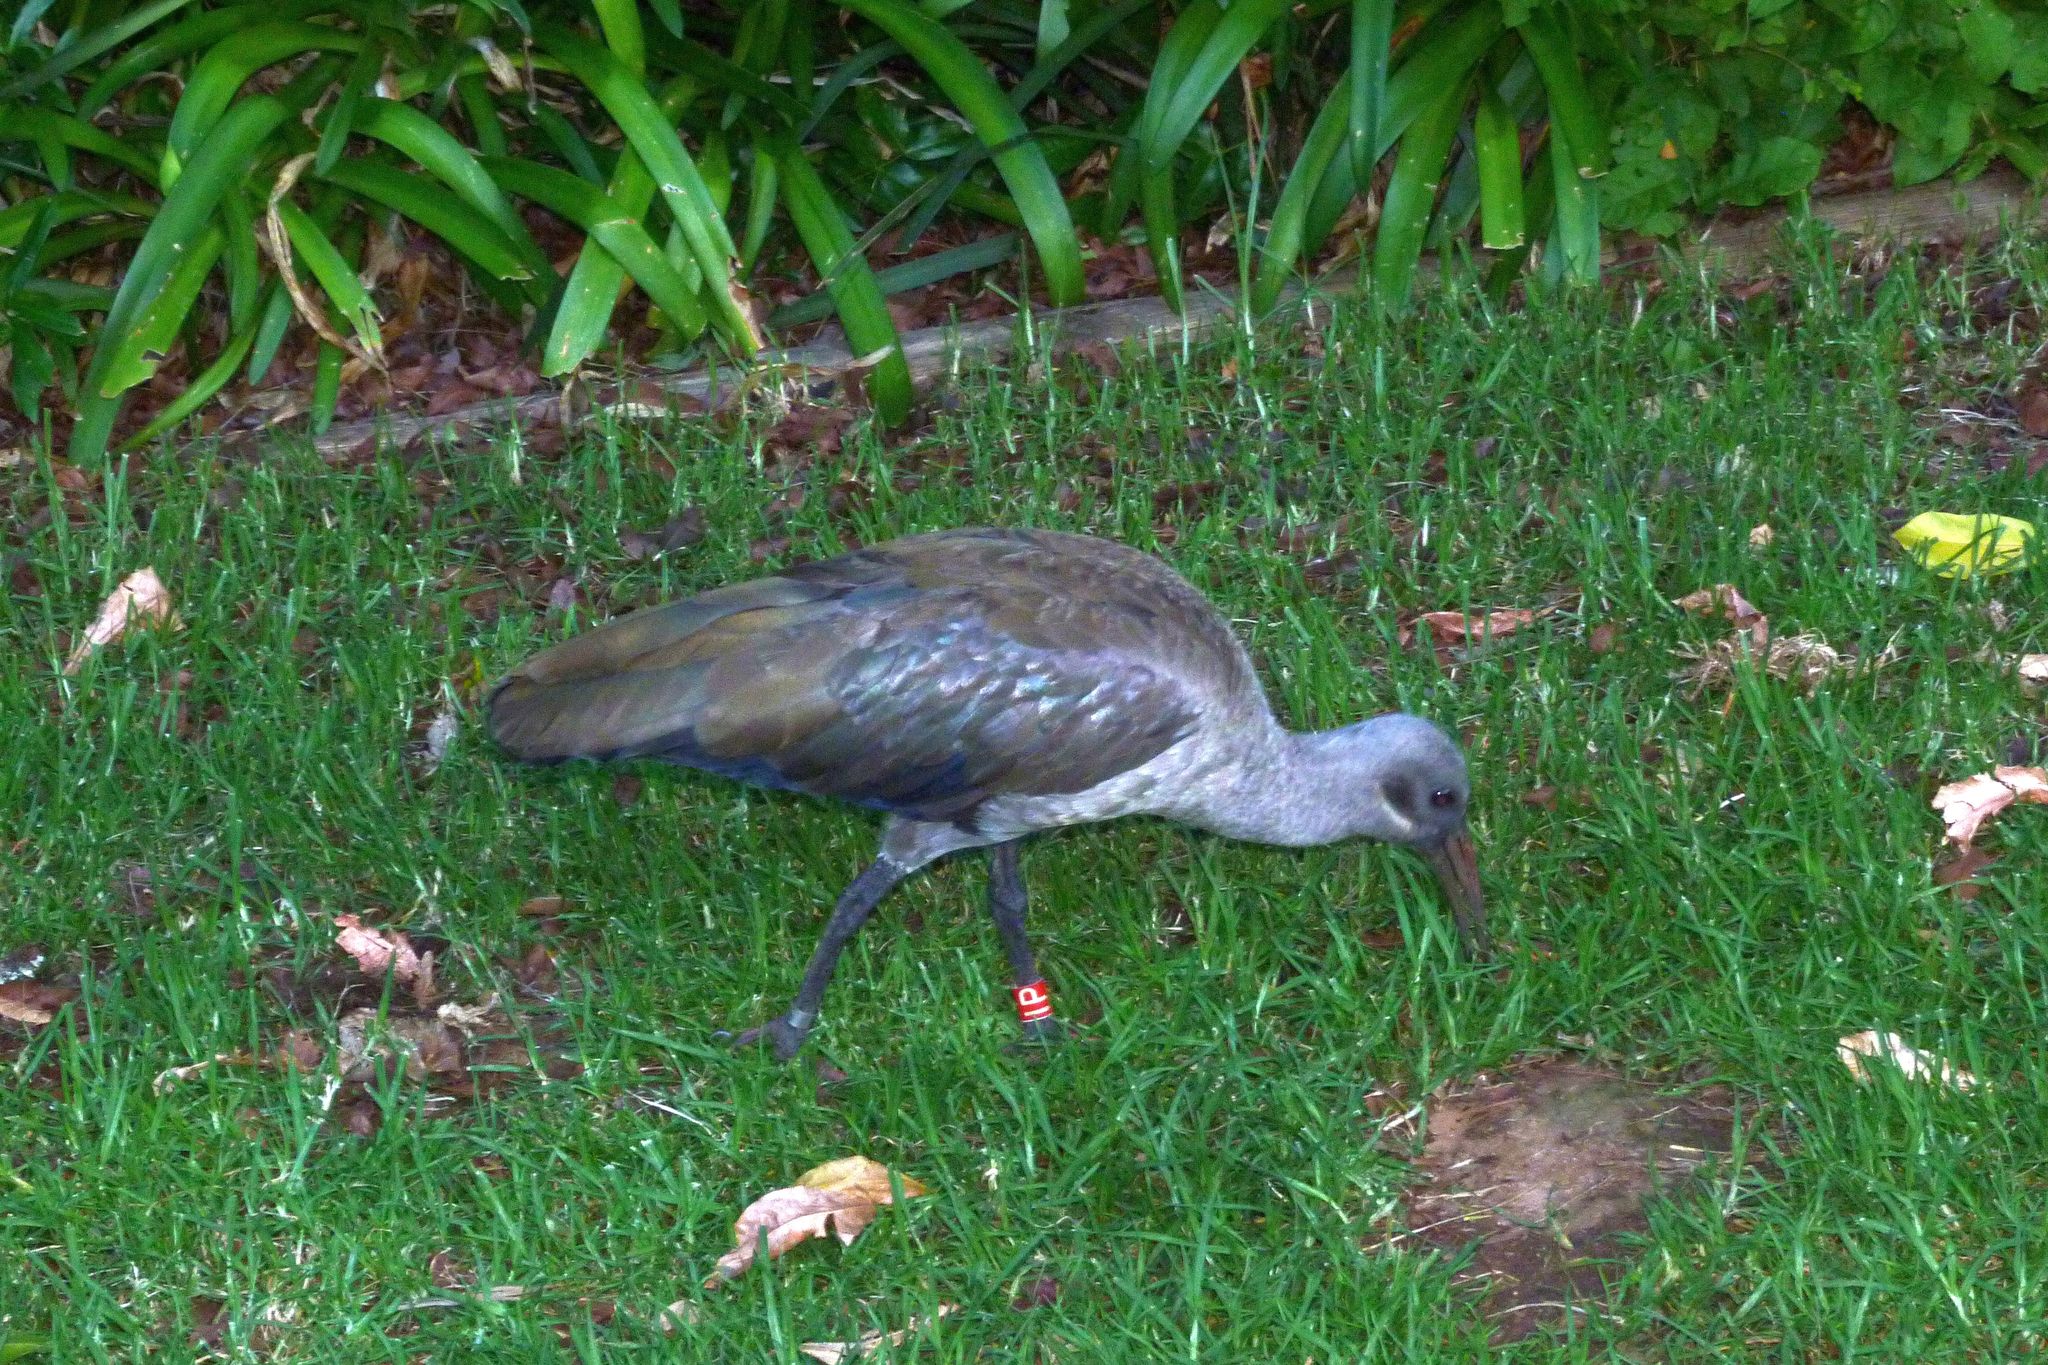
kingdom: Animalia
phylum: Chordata
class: Aves
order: Pelecaniformes
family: Threskiornithidae
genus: Bostrychia
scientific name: Bostrychia hagedash
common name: Hadada ibis
